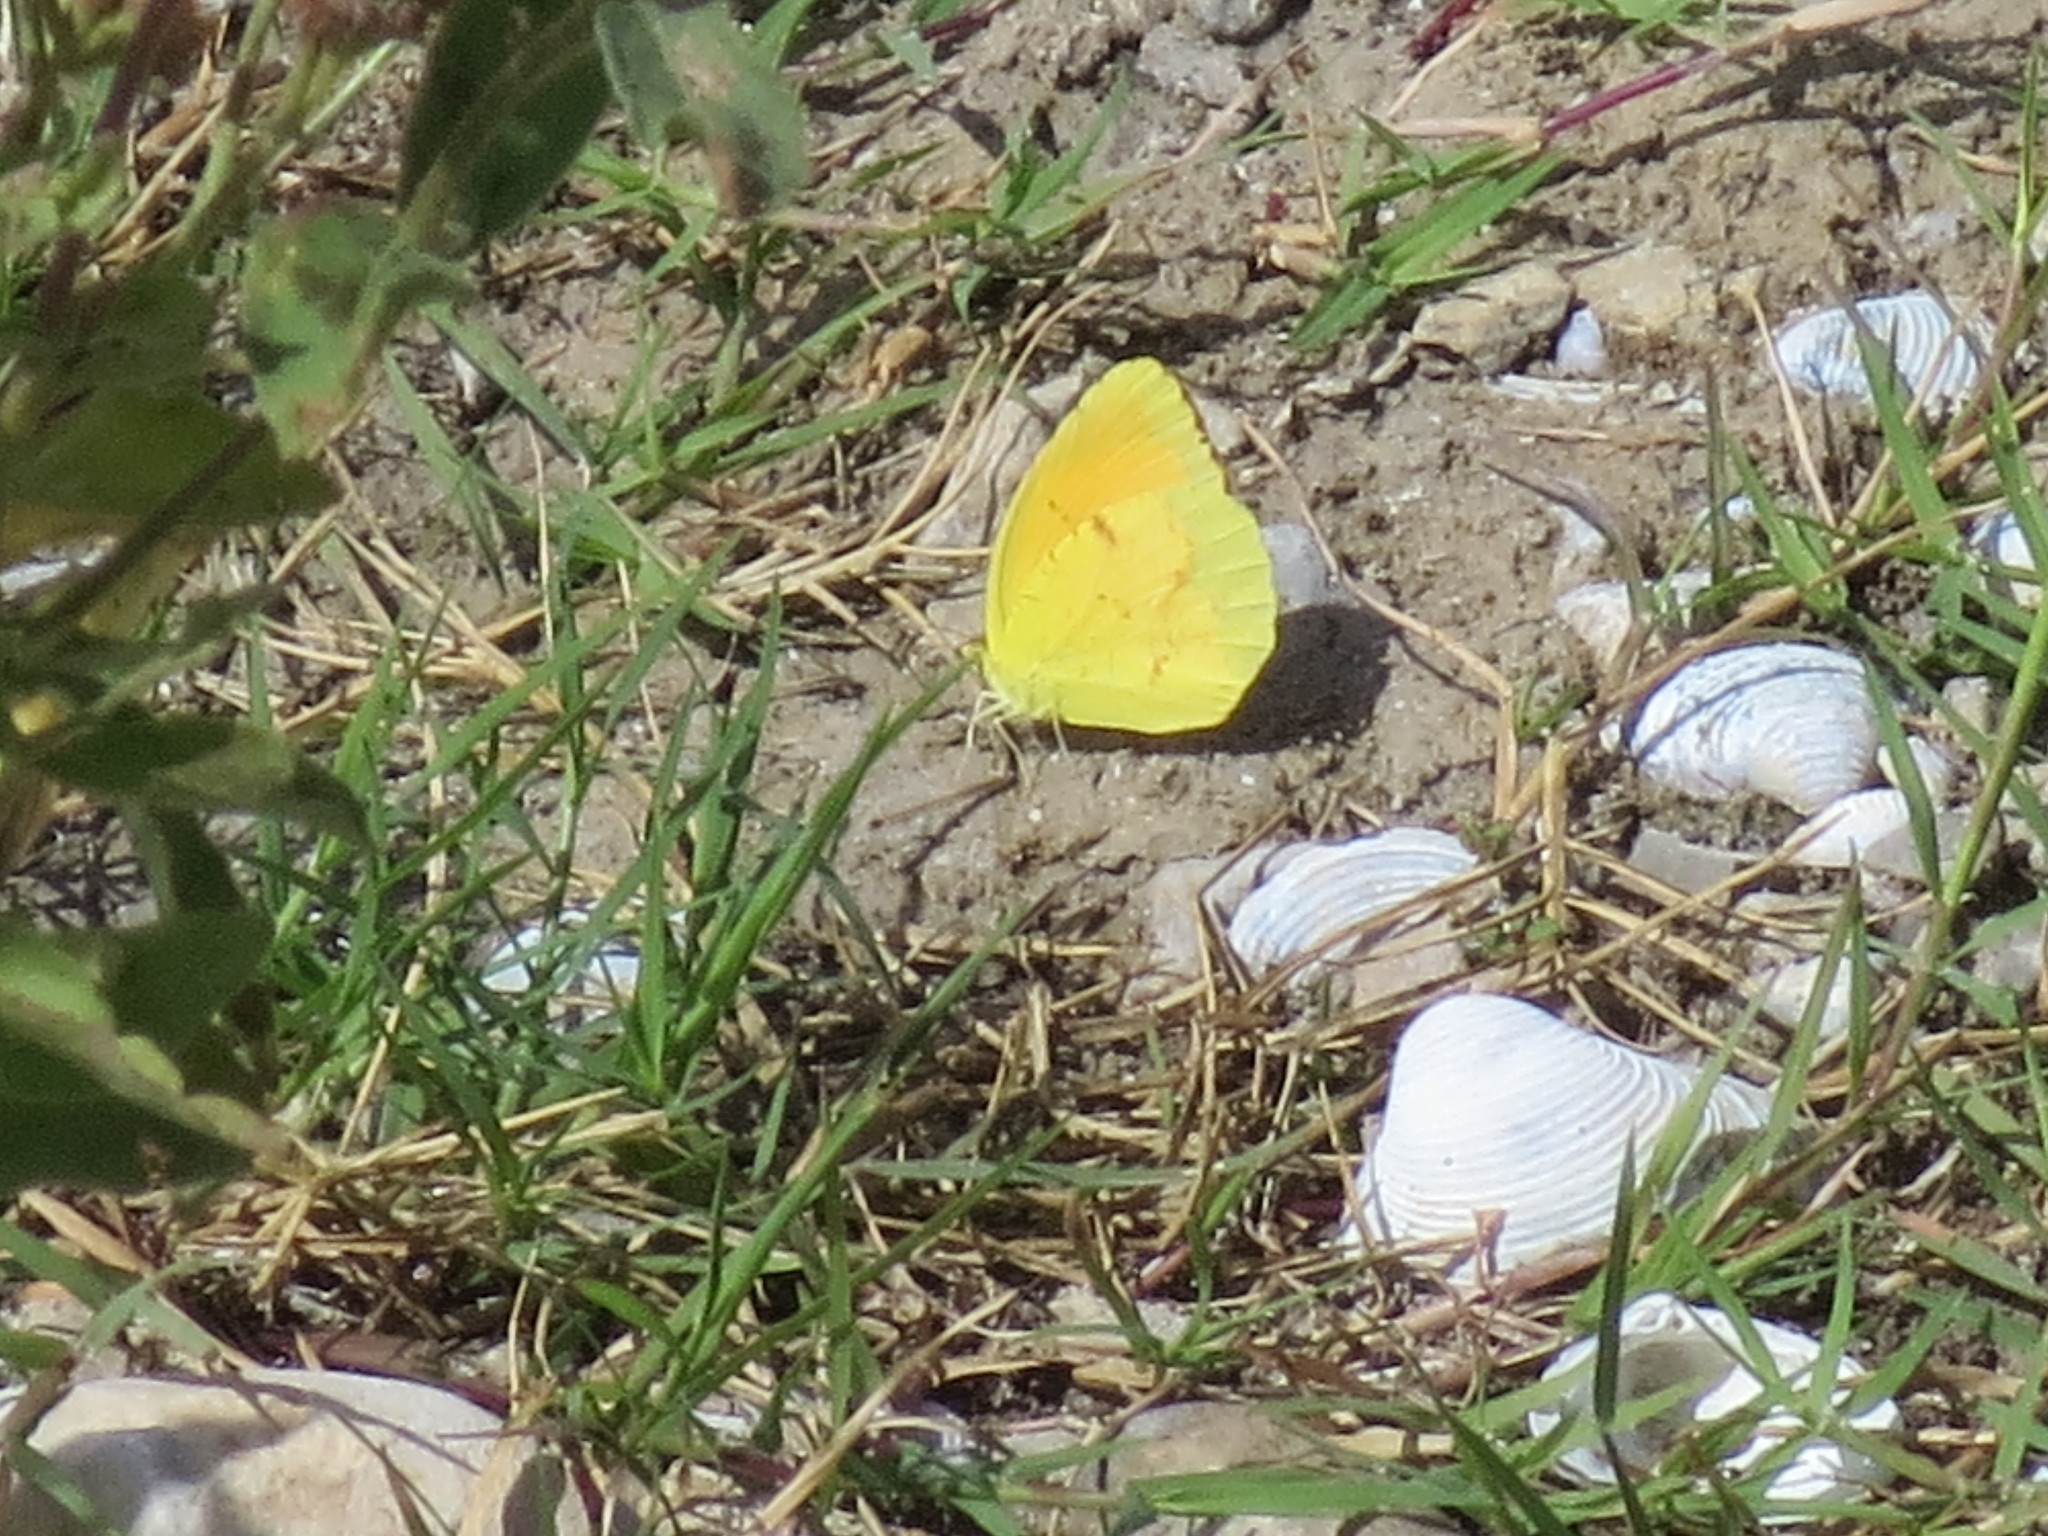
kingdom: Animalia
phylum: Arthropoda
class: Insecta
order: Lepidoptera
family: Pieridae
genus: Abaeis
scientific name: Abaeis nicippe
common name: Sleepy orange
